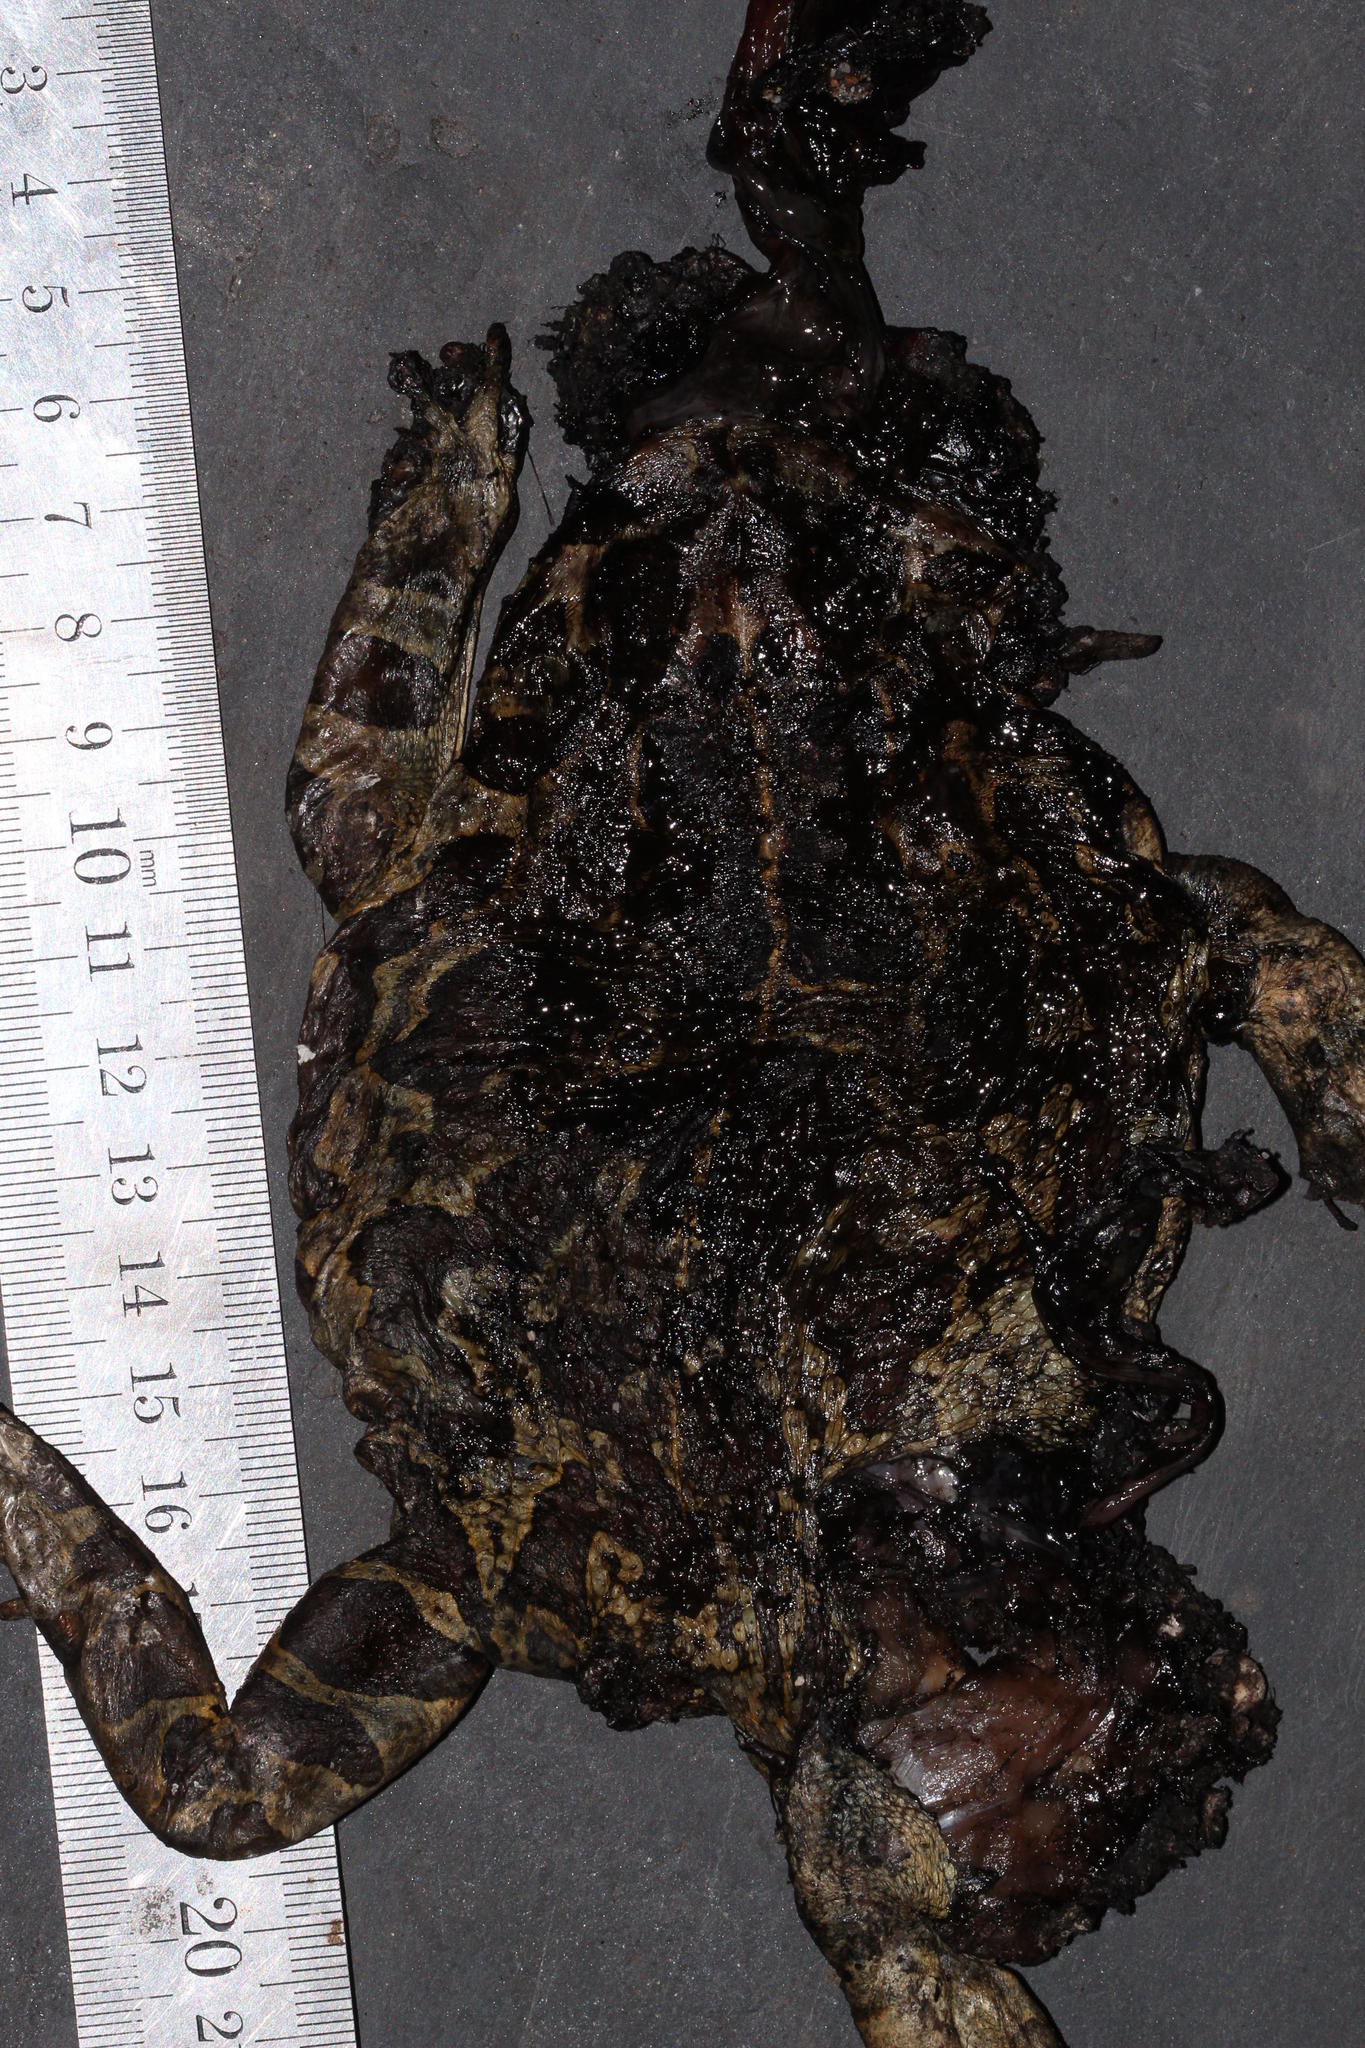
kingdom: Animalia
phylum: Chordata
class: Amphibia
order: Anura
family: Bufonidae
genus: Sclerophrys
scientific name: Sclerophrys pantherina
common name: Panther toad
